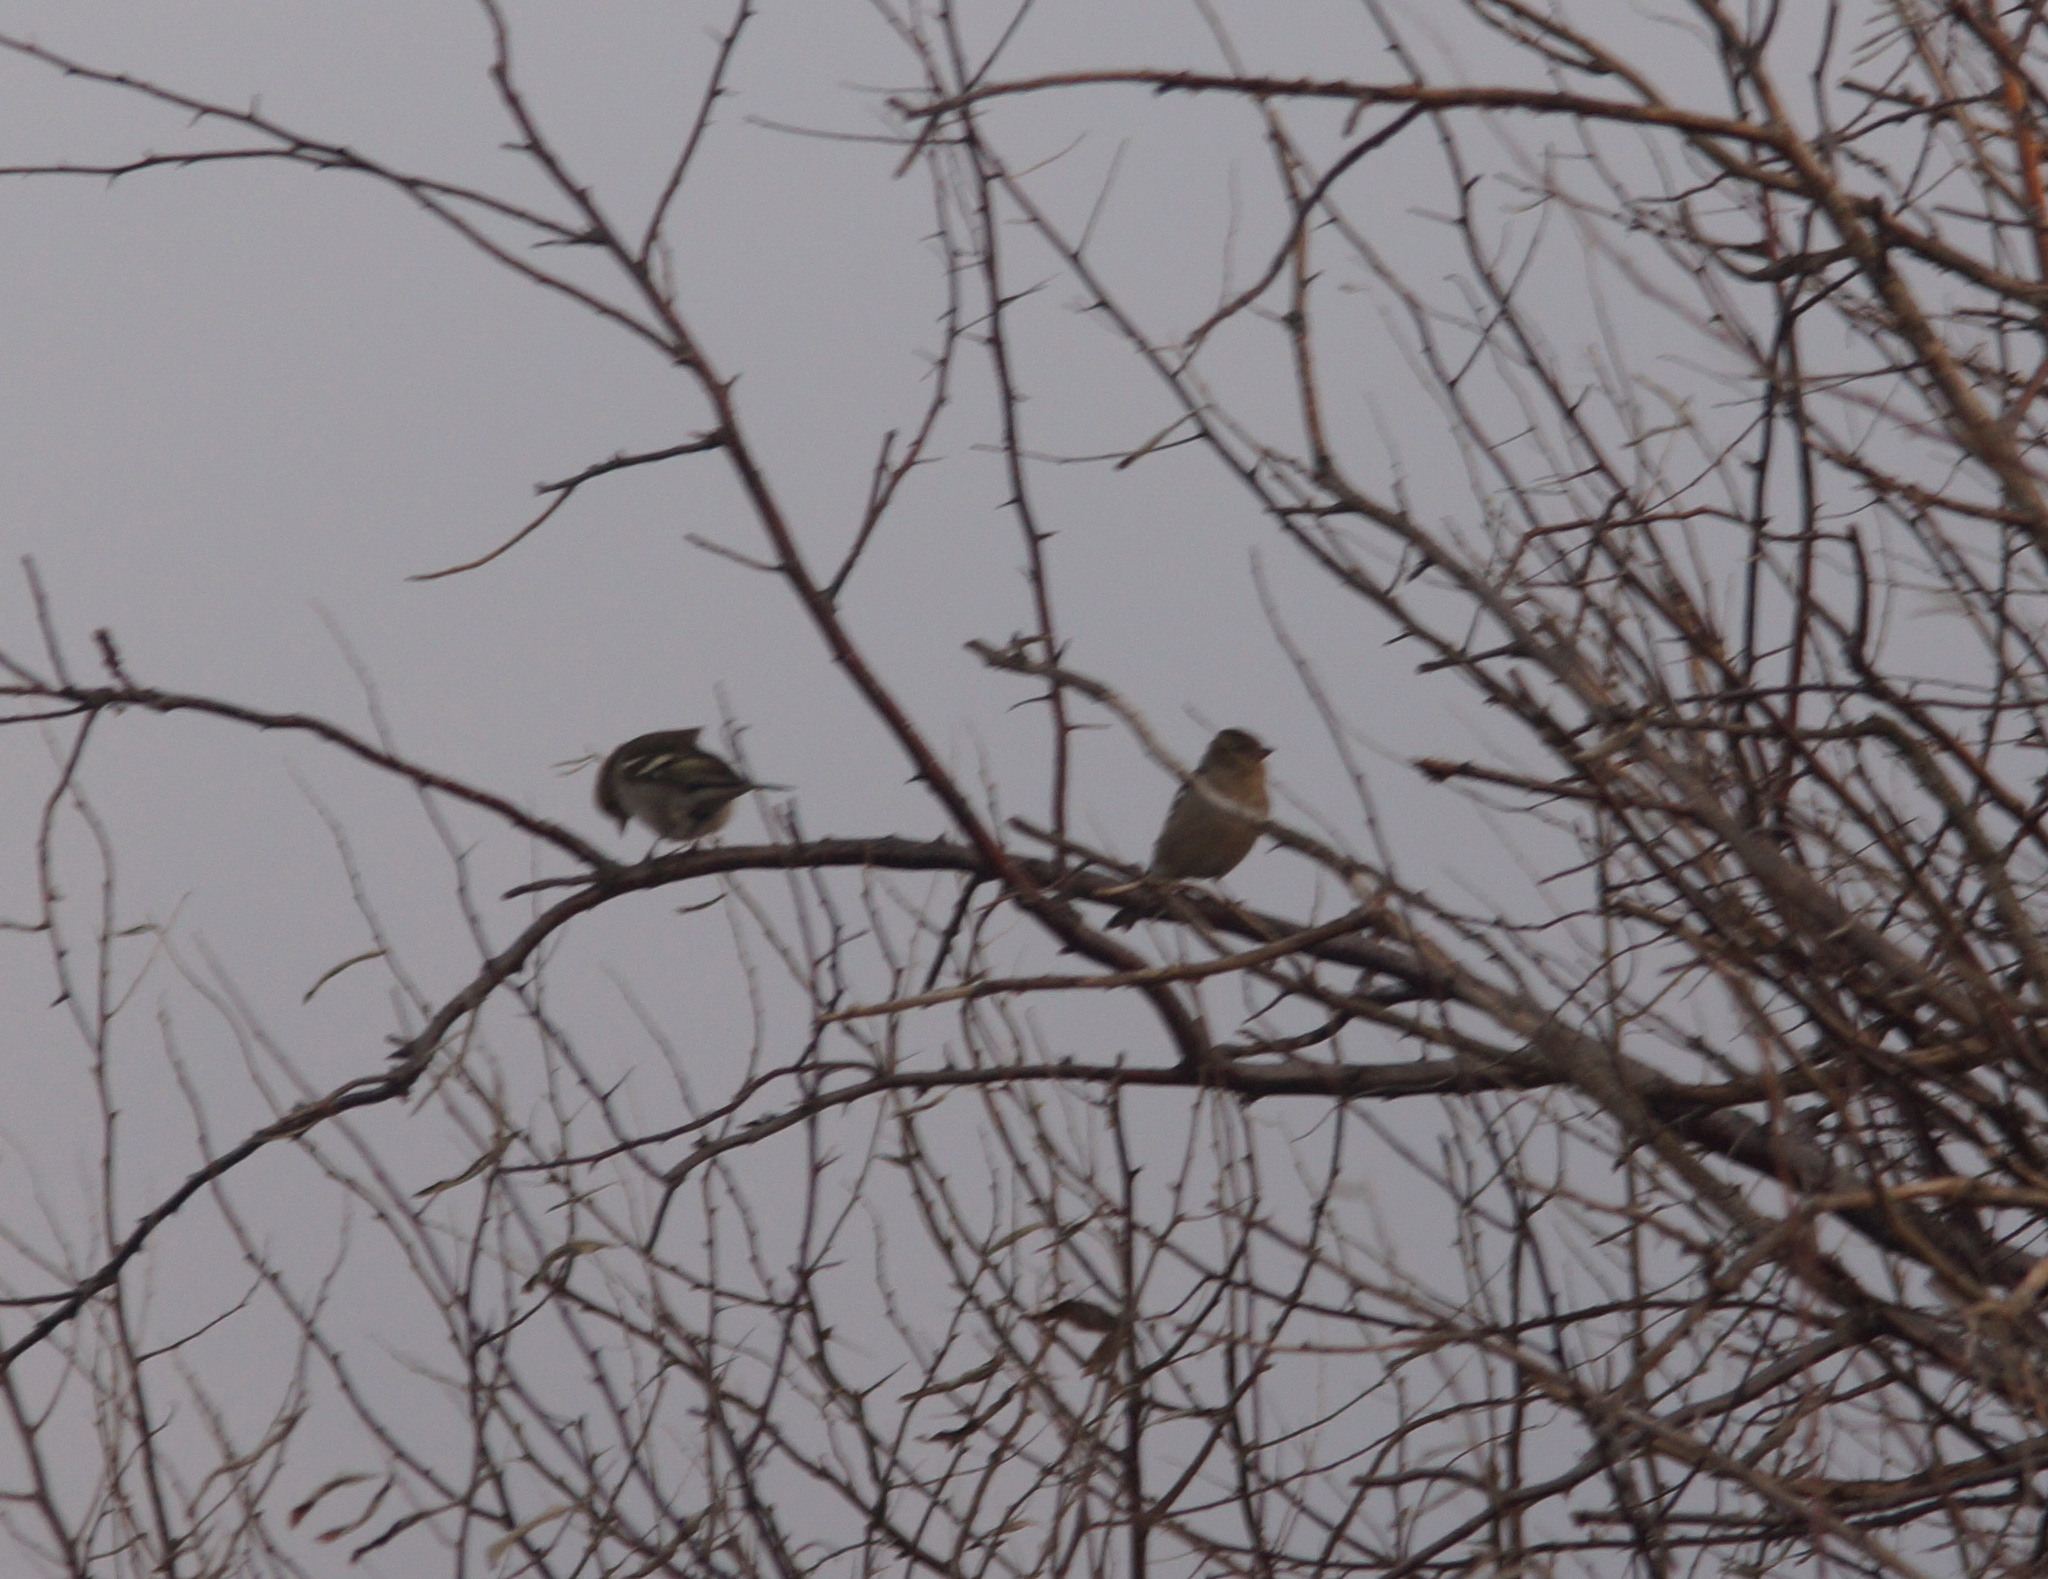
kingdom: Animalia
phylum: Chordata
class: Aves
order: Passeriformes
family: Fringillidae
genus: Fringilla
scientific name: Fringilla coelebs
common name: Common chaffinch
